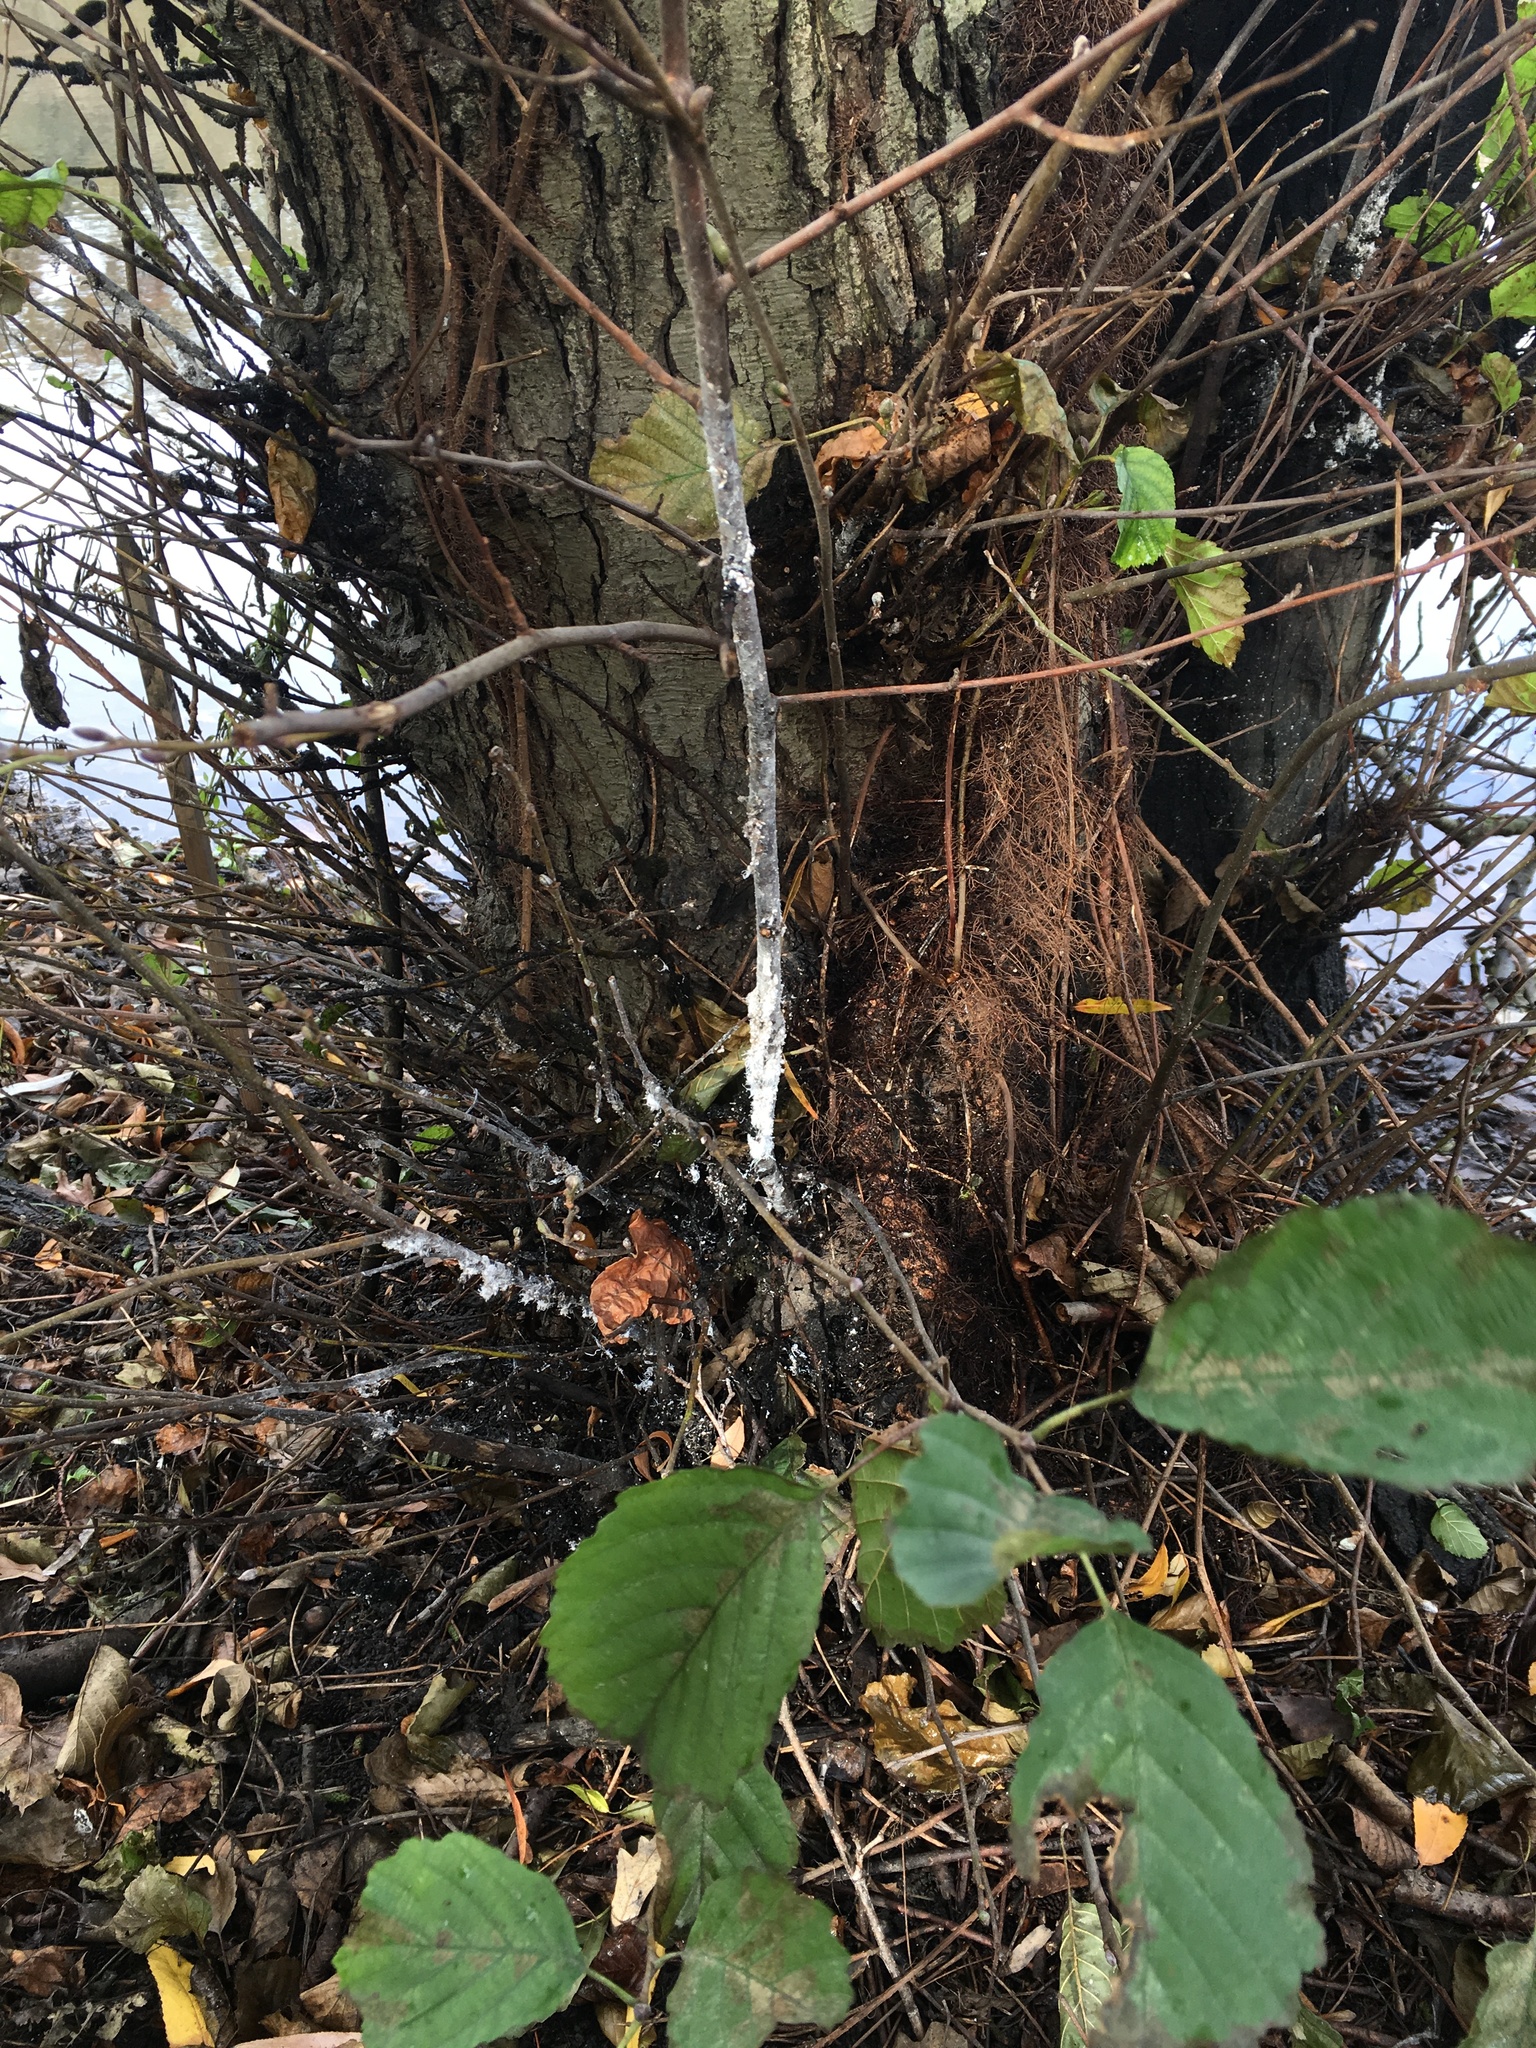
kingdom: Animalia
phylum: Arthropoda
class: Insecta
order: Hemiptera
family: Aphididae
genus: Prociphilus
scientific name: Prociphilus tessellatus
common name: Woolly alder aphid
